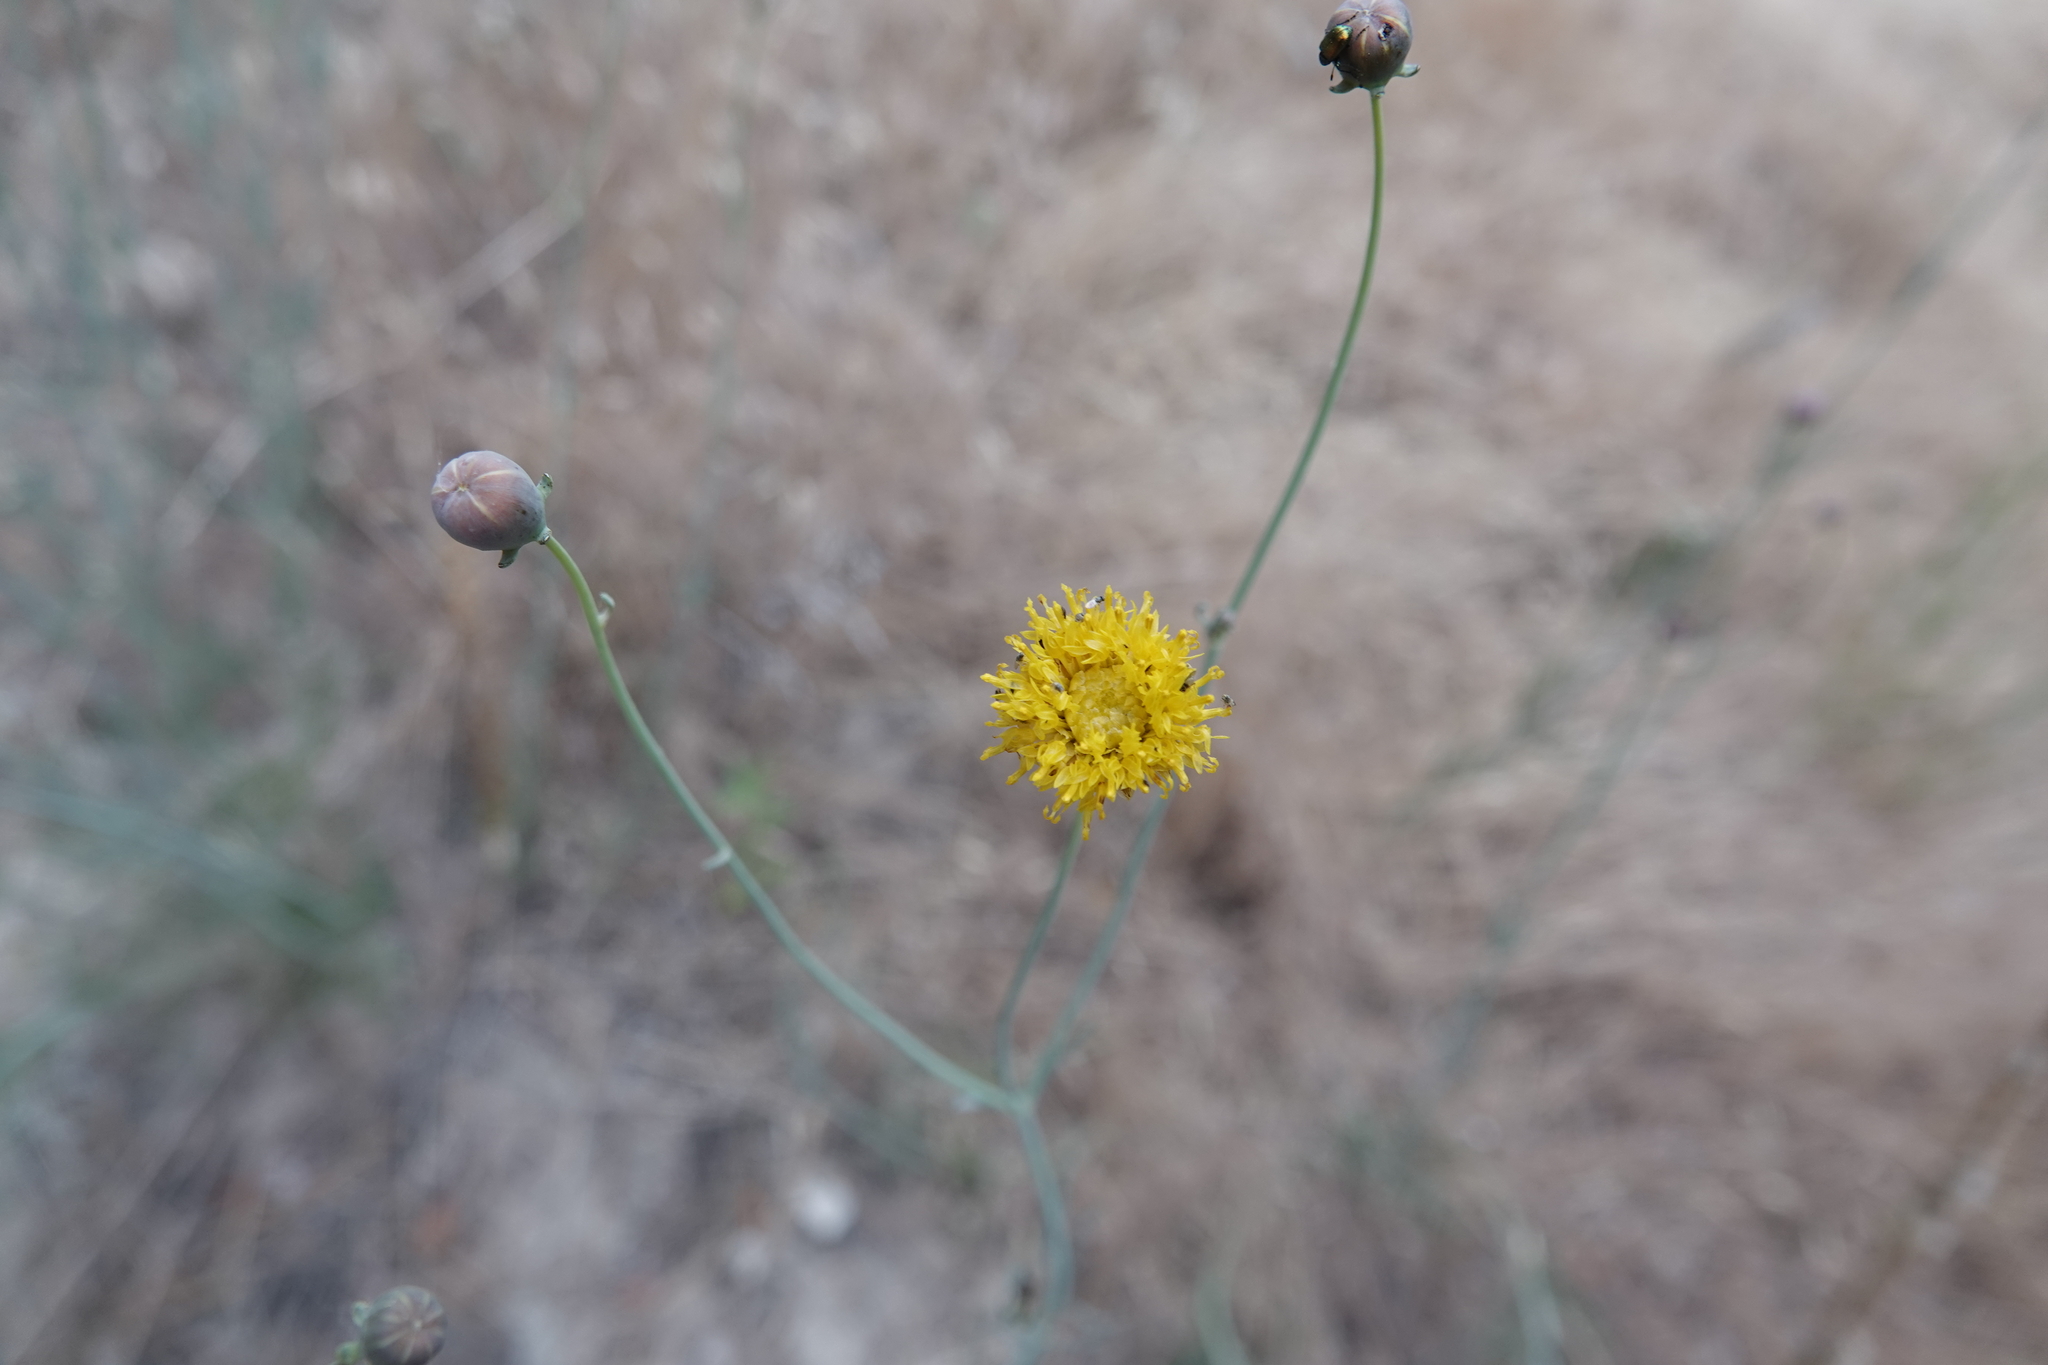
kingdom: Plantae
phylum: Tracheophyta
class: Magnoliopsida
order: Asterales
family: Asteraceae
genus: Thelesperma
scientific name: Thelesperma megapotamicum
